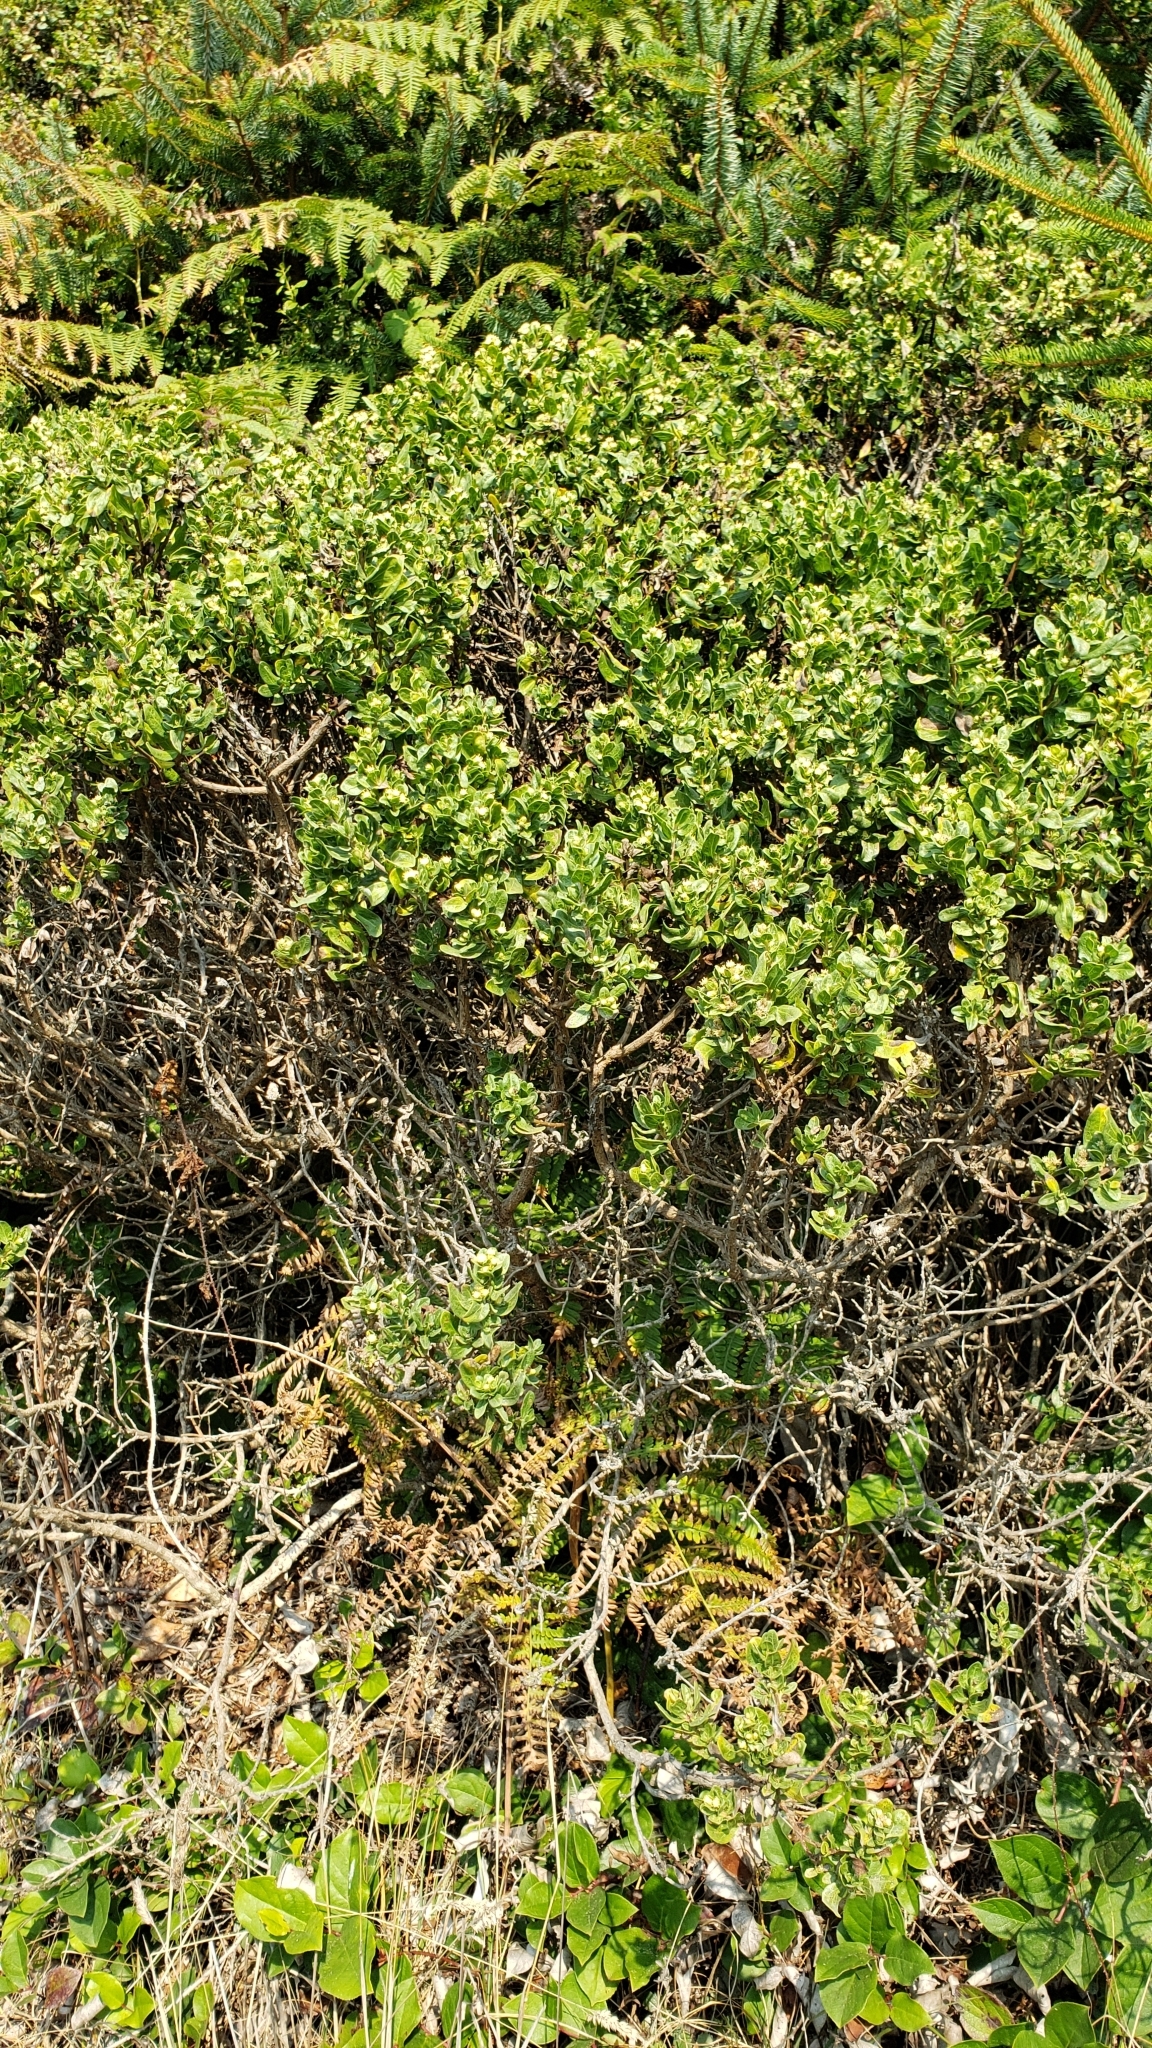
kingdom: Plantae
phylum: Tracheophyta
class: Magnoliopsida
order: Asterales
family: Asteraceae
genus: Baccharis
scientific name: Baccharis pilularis
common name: Coyotebrush
